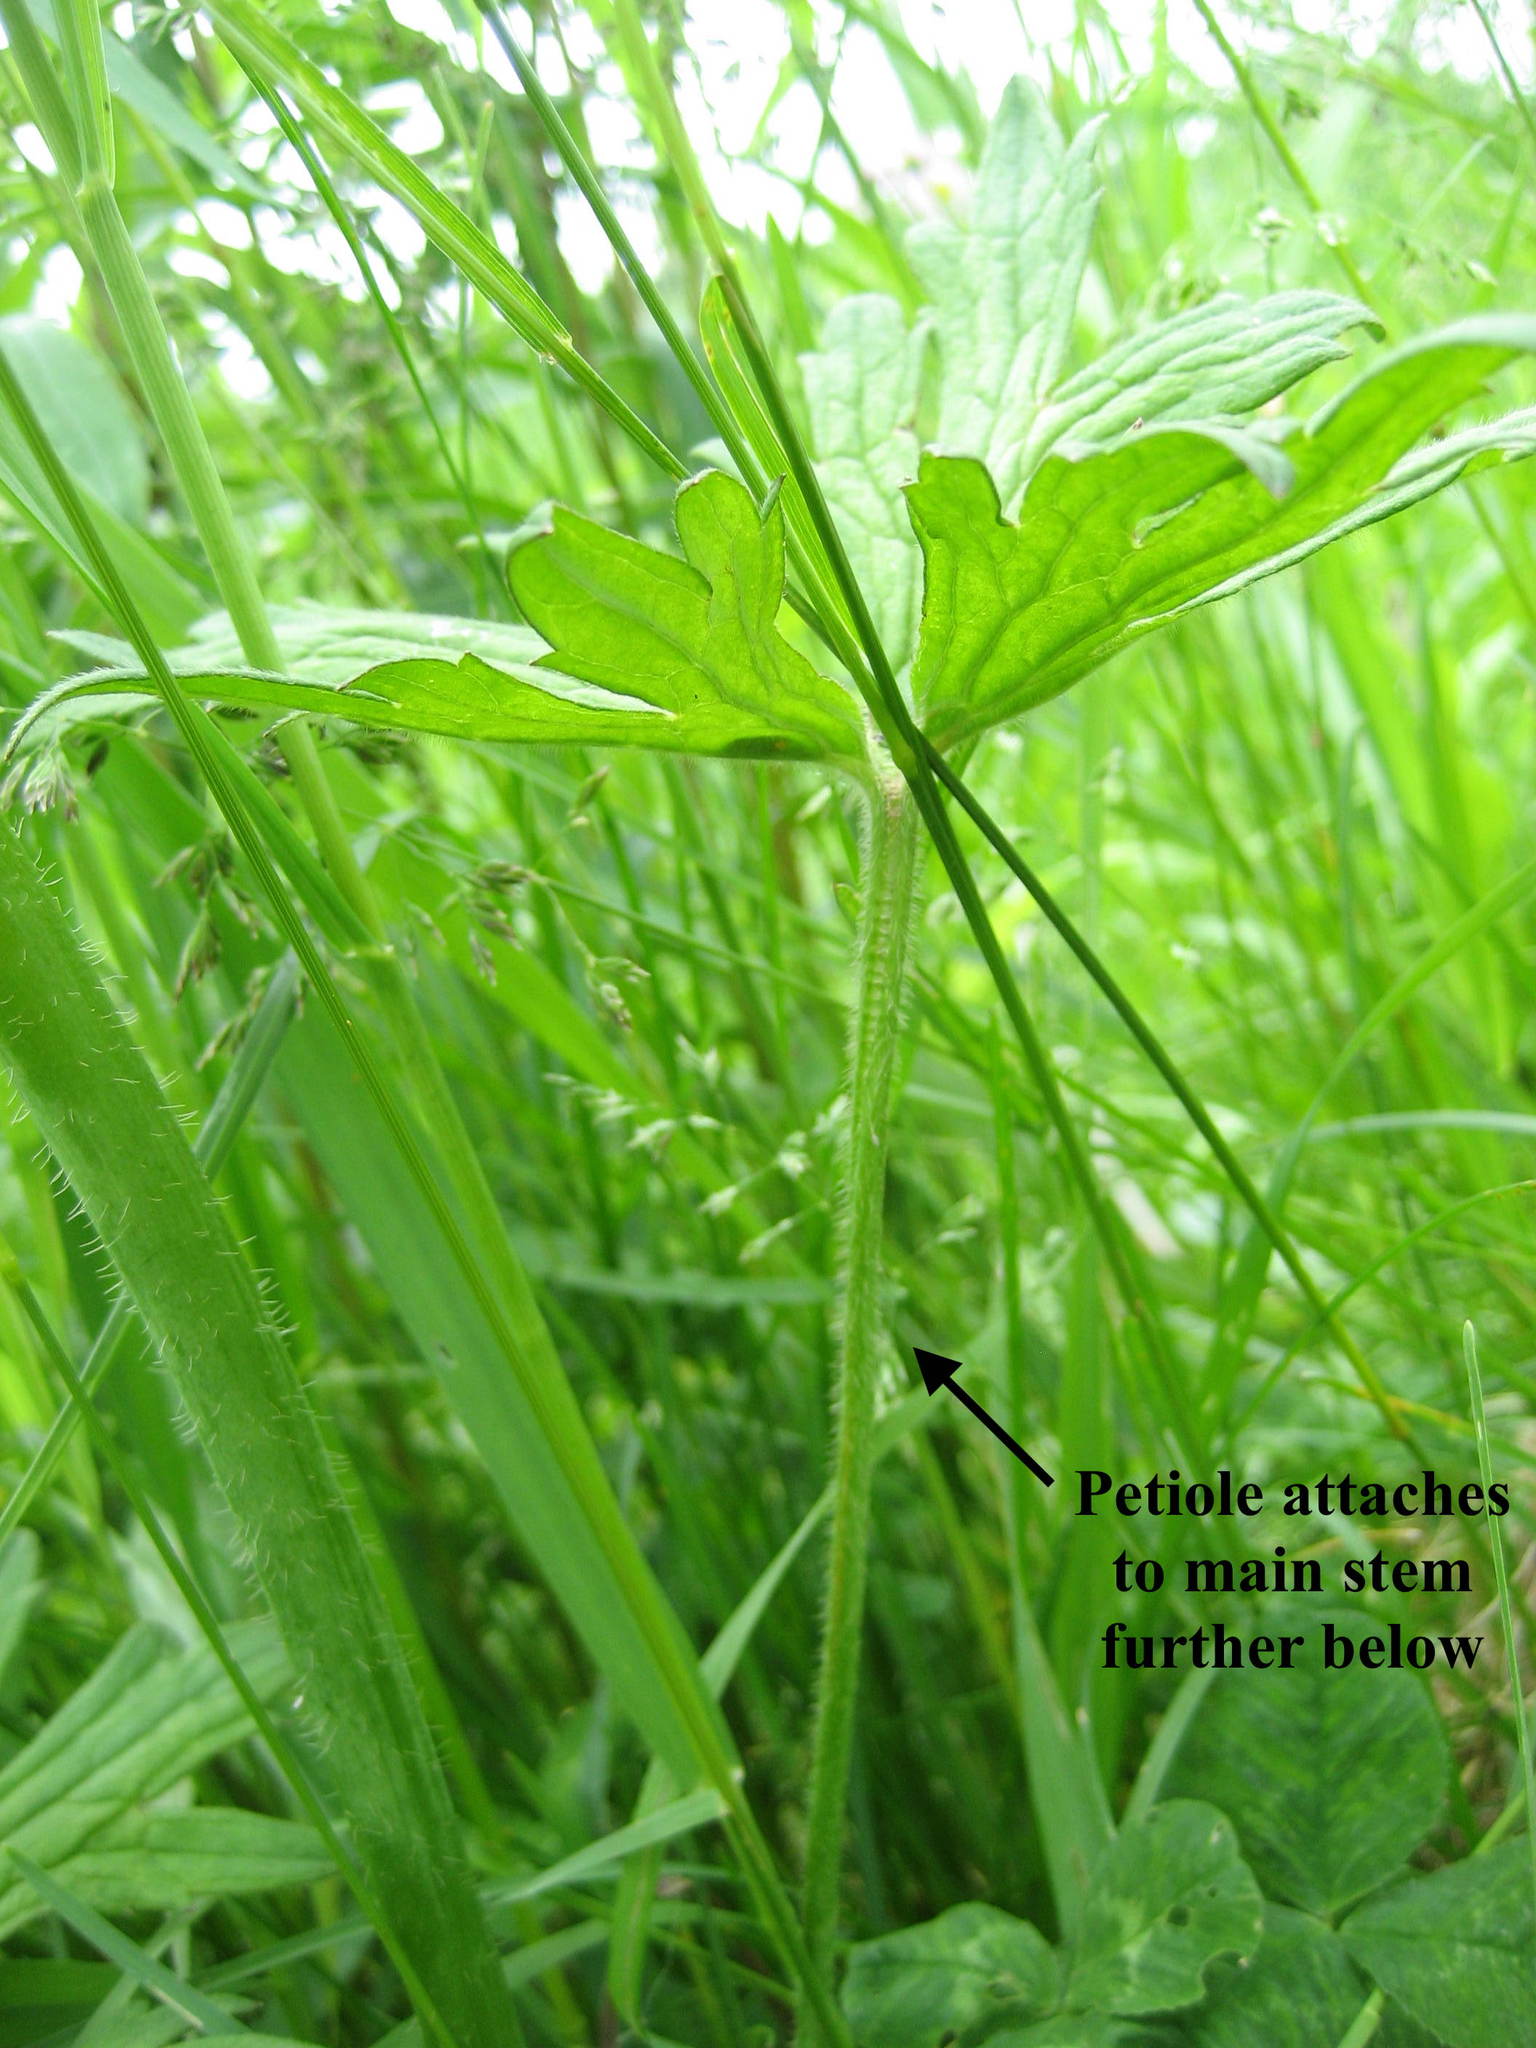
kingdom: Plantae
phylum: Tracheophyta
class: Magnoliopsida
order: Ranunculales
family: Ranunculaceae
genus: Ranunculus
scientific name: Ranunculus acris
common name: Meadow buttercup
